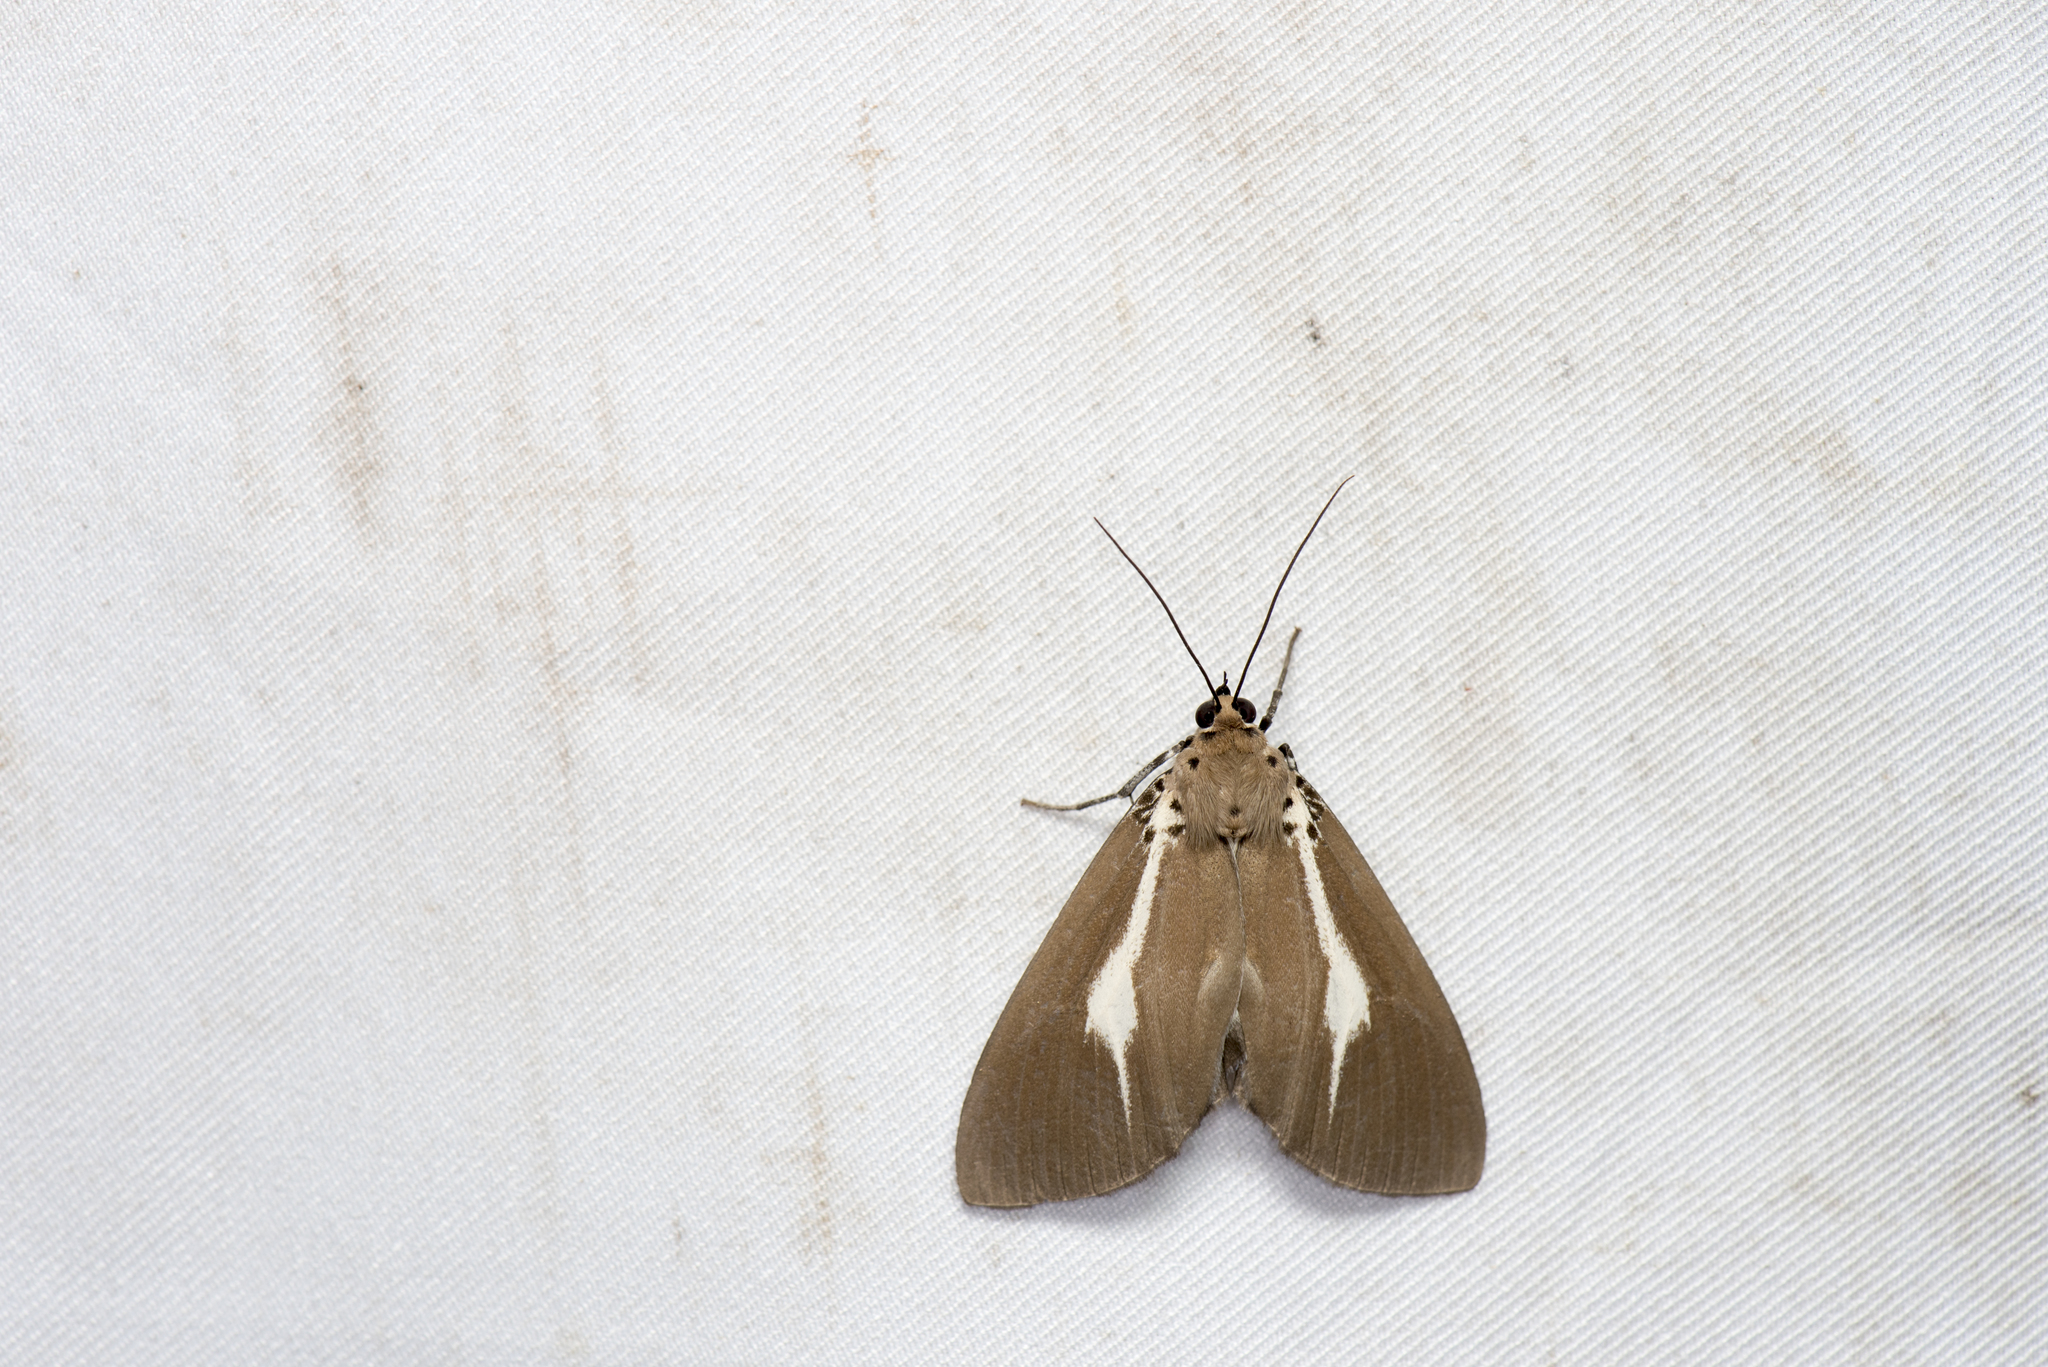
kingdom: Animalia
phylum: Arthropoda
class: Insecta
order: Lepidoptera
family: Erebidae
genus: Asota
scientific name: Asota heliconia
